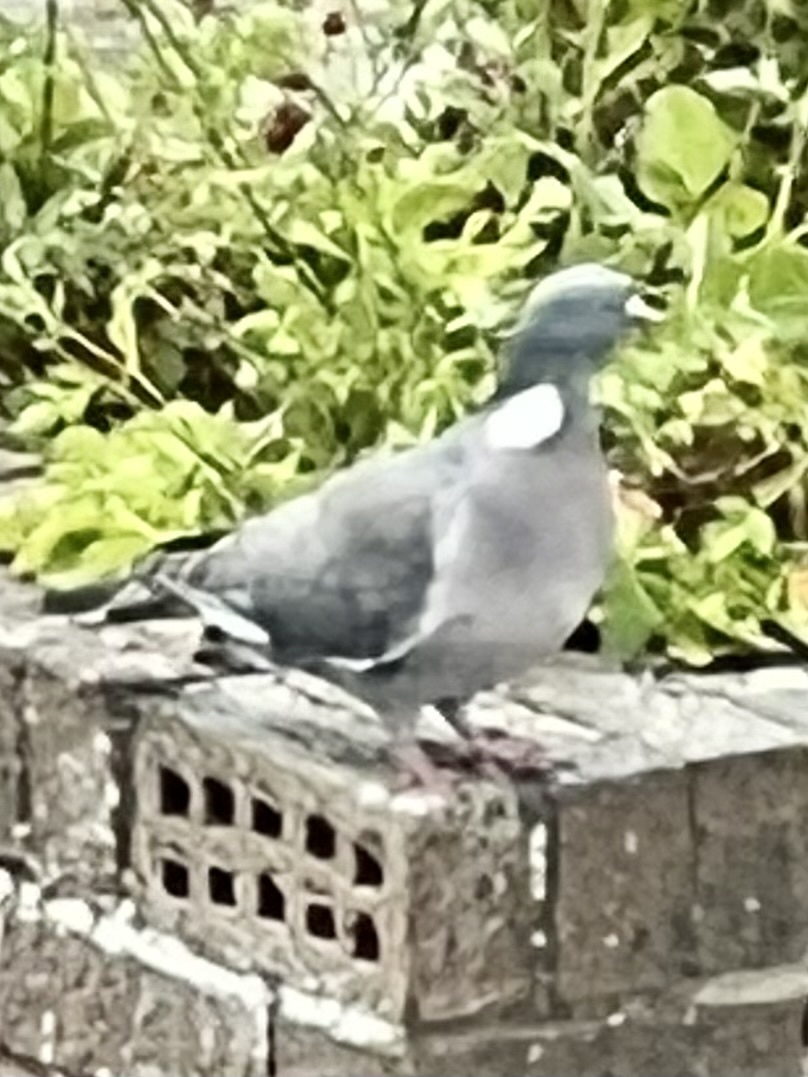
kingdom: Animalia
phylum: Chordata
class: Aves
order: Columbiformes
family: Columbidae
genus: Columba
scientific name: Columba palumbus
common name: Common wood pigeon
